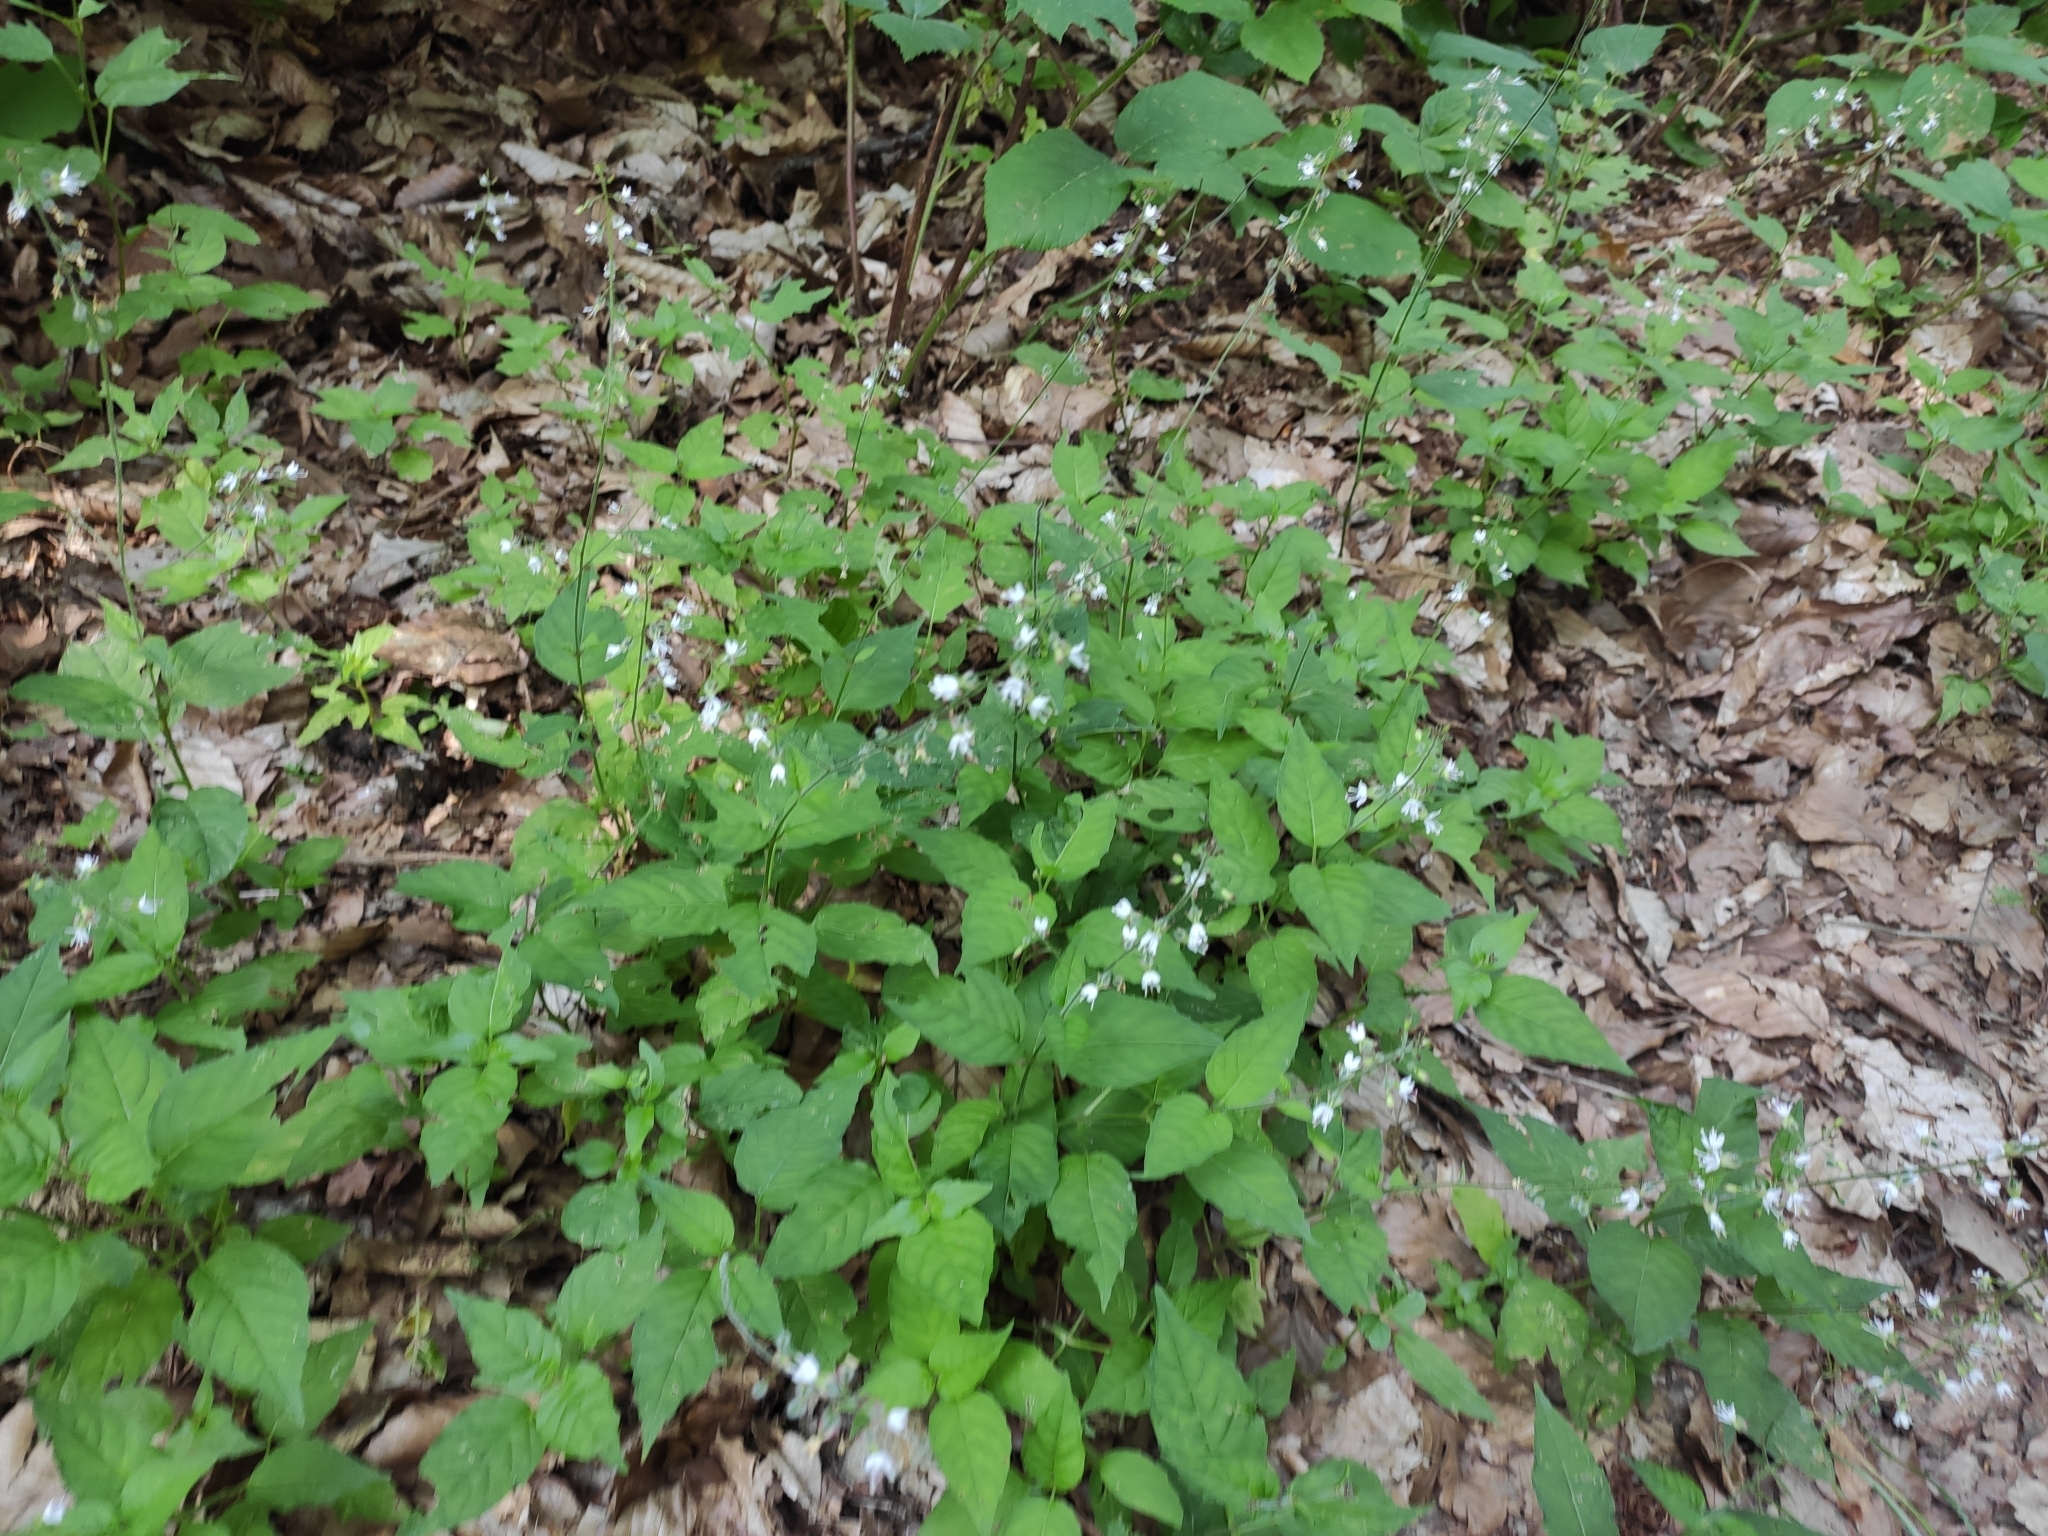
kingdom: Plantae
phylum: Tracheophyta
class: Magnoliopsida
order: Myrtales
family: Onagraceae
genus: Circaea
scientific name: Circaea lutetiana
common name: Enchanter's-nightshade
